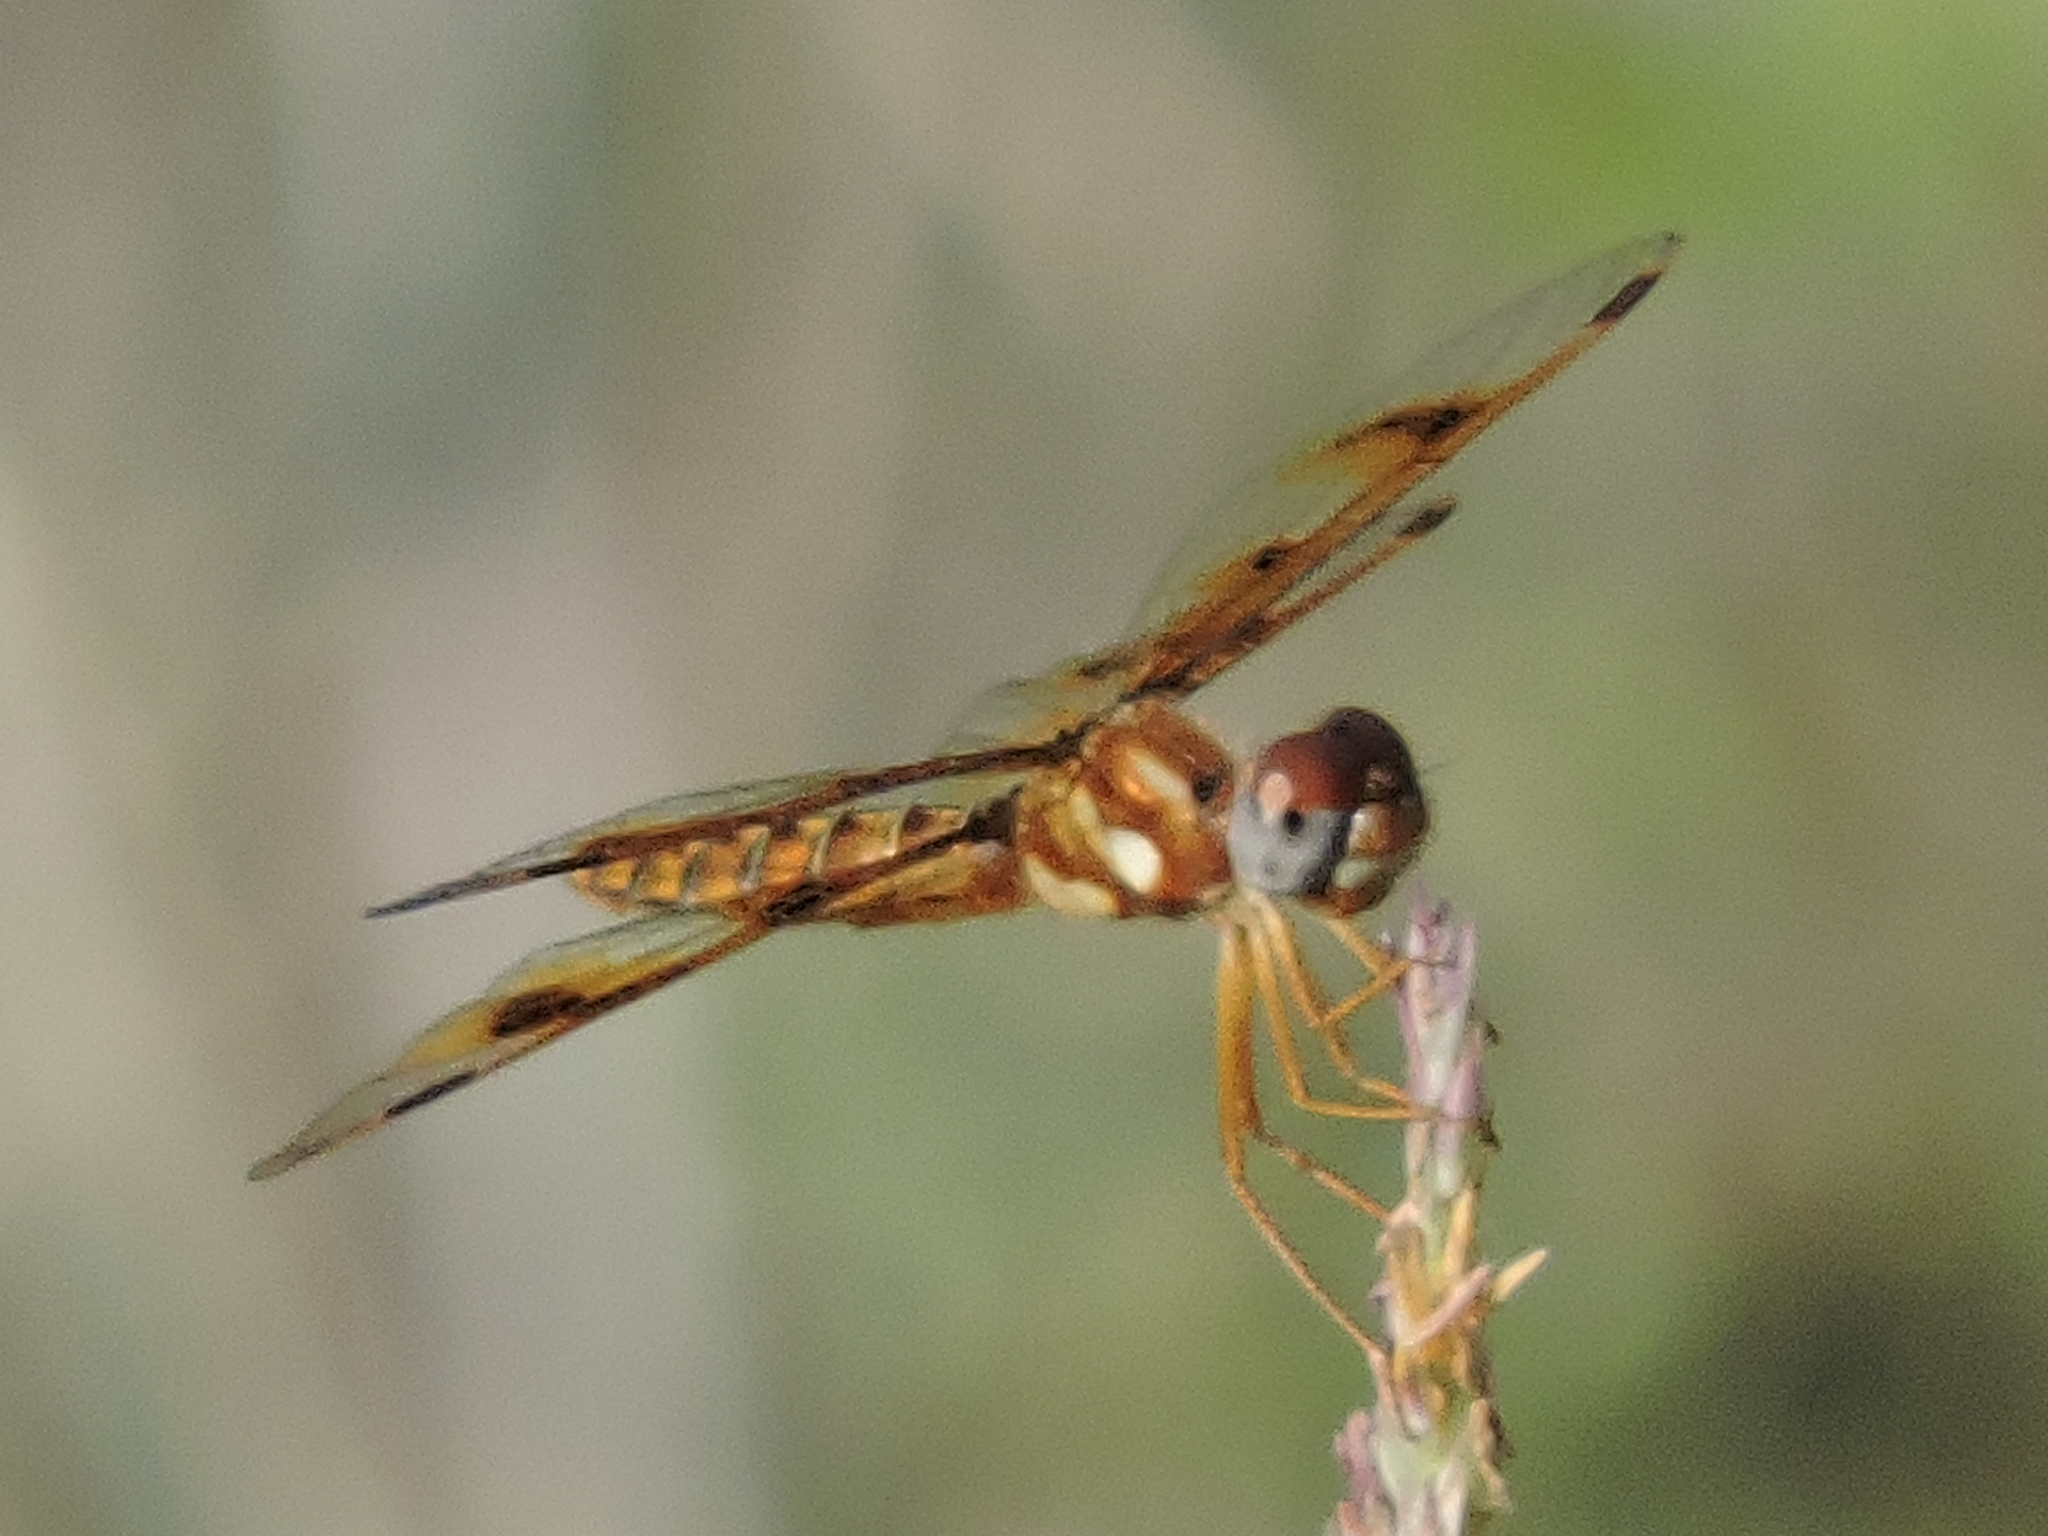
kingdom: Animalia
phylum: Arthropoda
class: Insecta
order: Odonata
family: Libellulidae
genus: Perithemis
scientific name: Perithemis tenera
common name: Eastern amberwing
